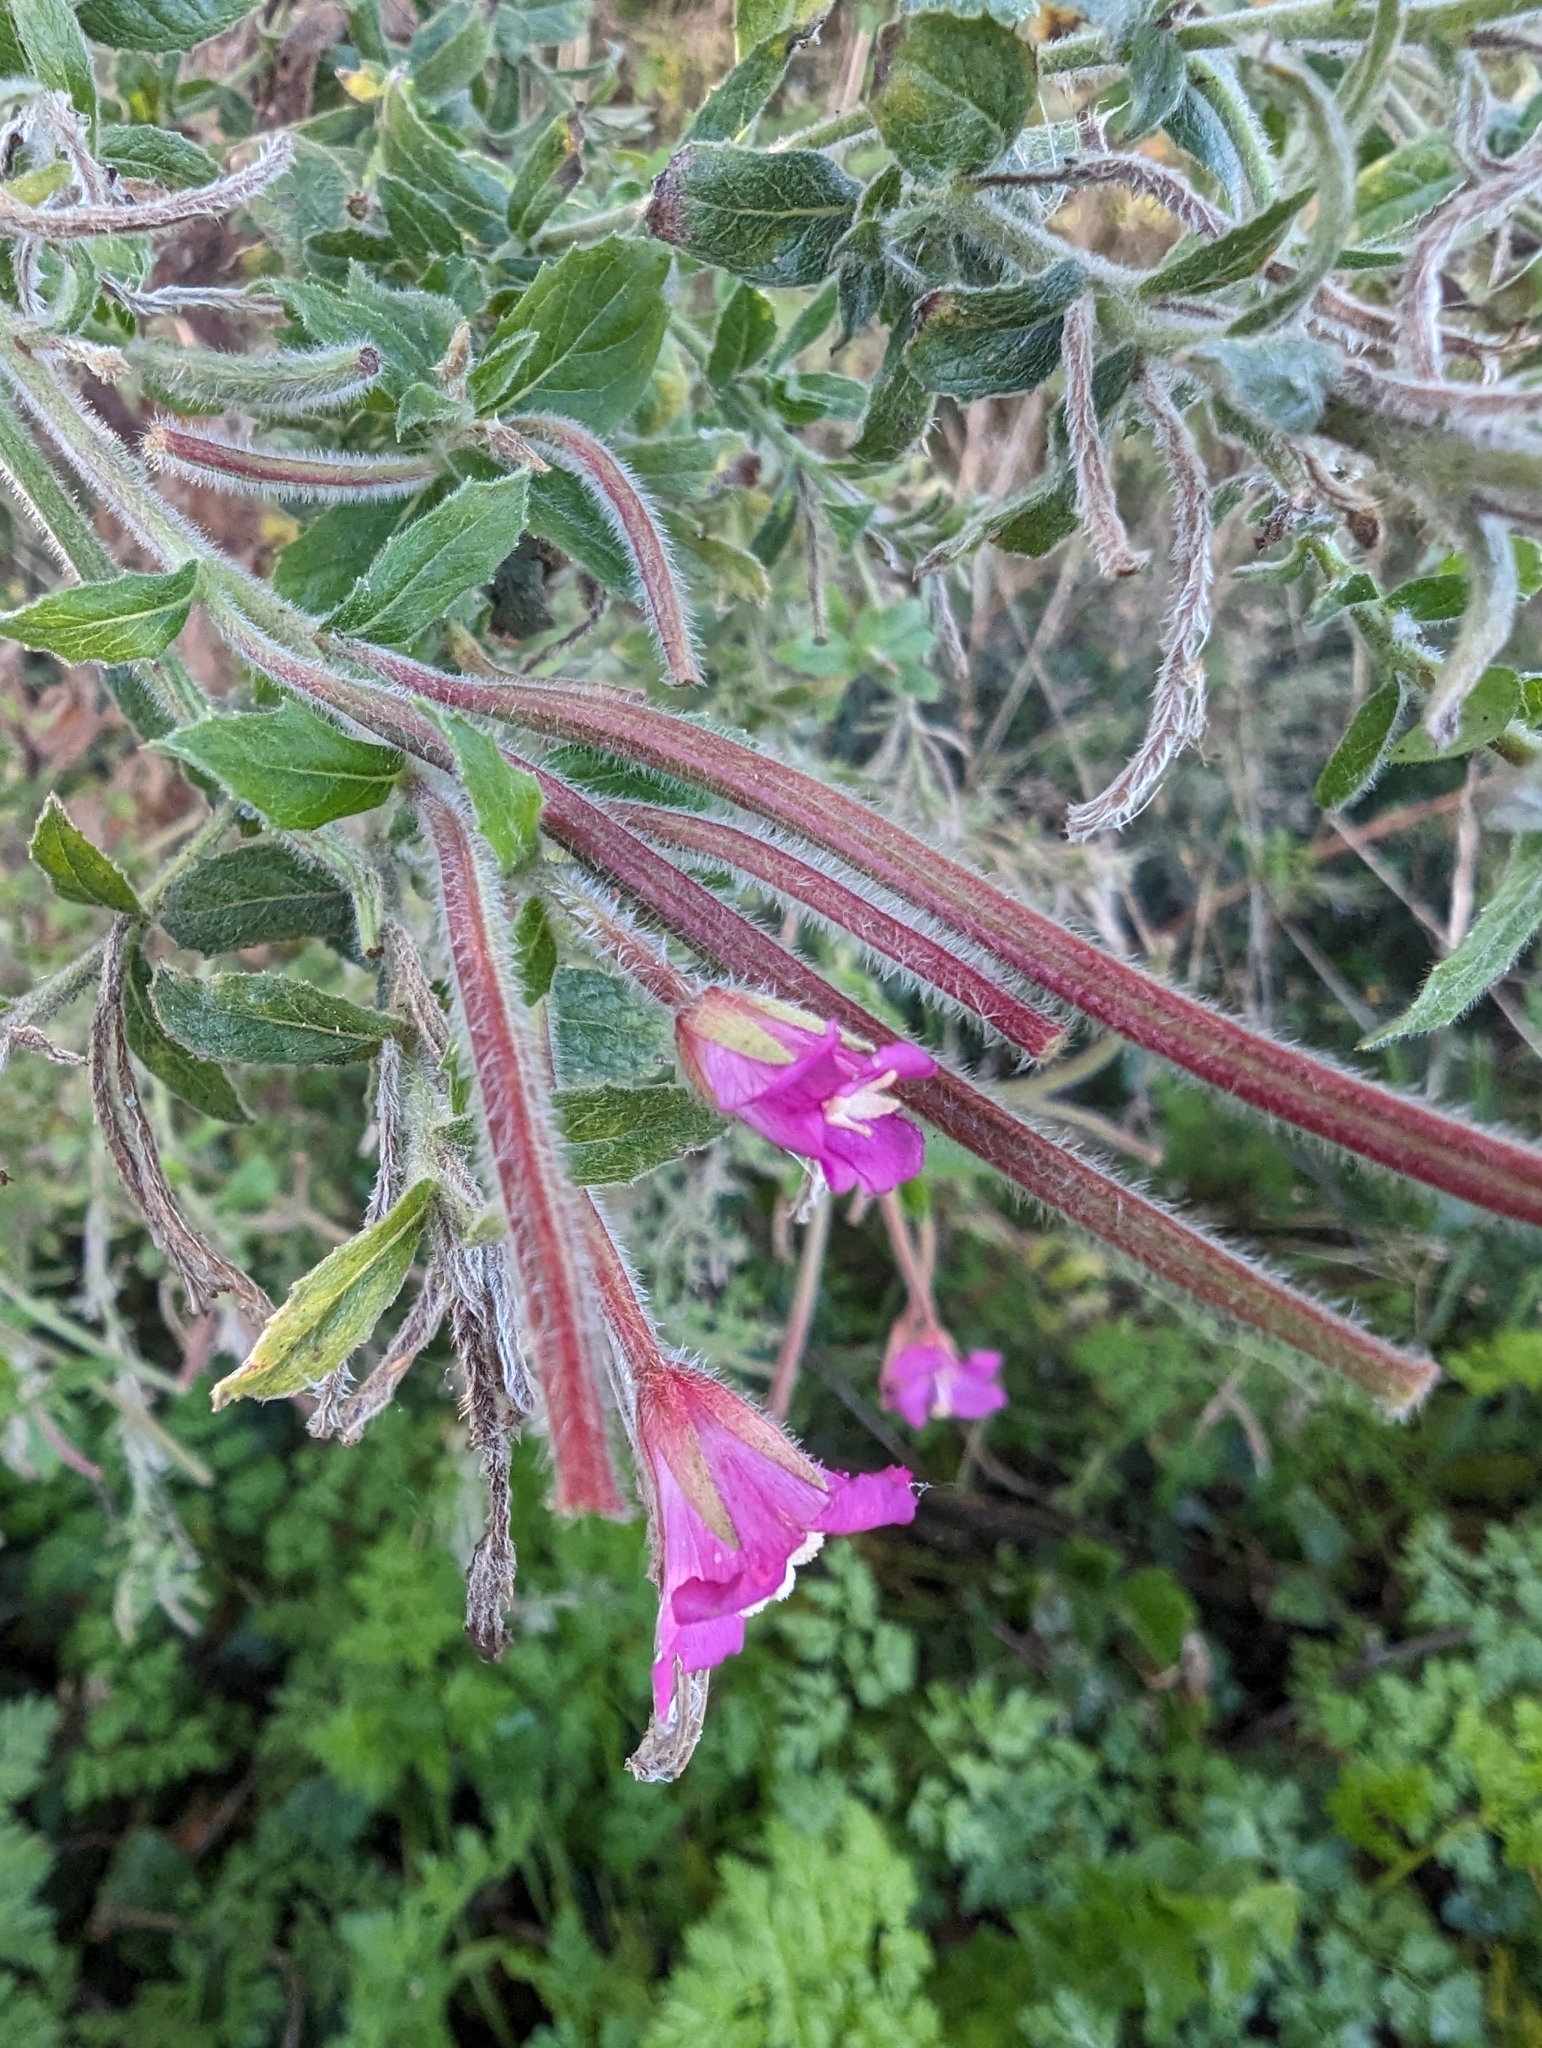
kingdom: Plantae
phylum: Tracheophyta
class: Magnoliopsida
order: Myrtales
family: Onagraceae
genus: Epilobium
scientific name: Epilobium hirsutum
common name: Great willowherb
